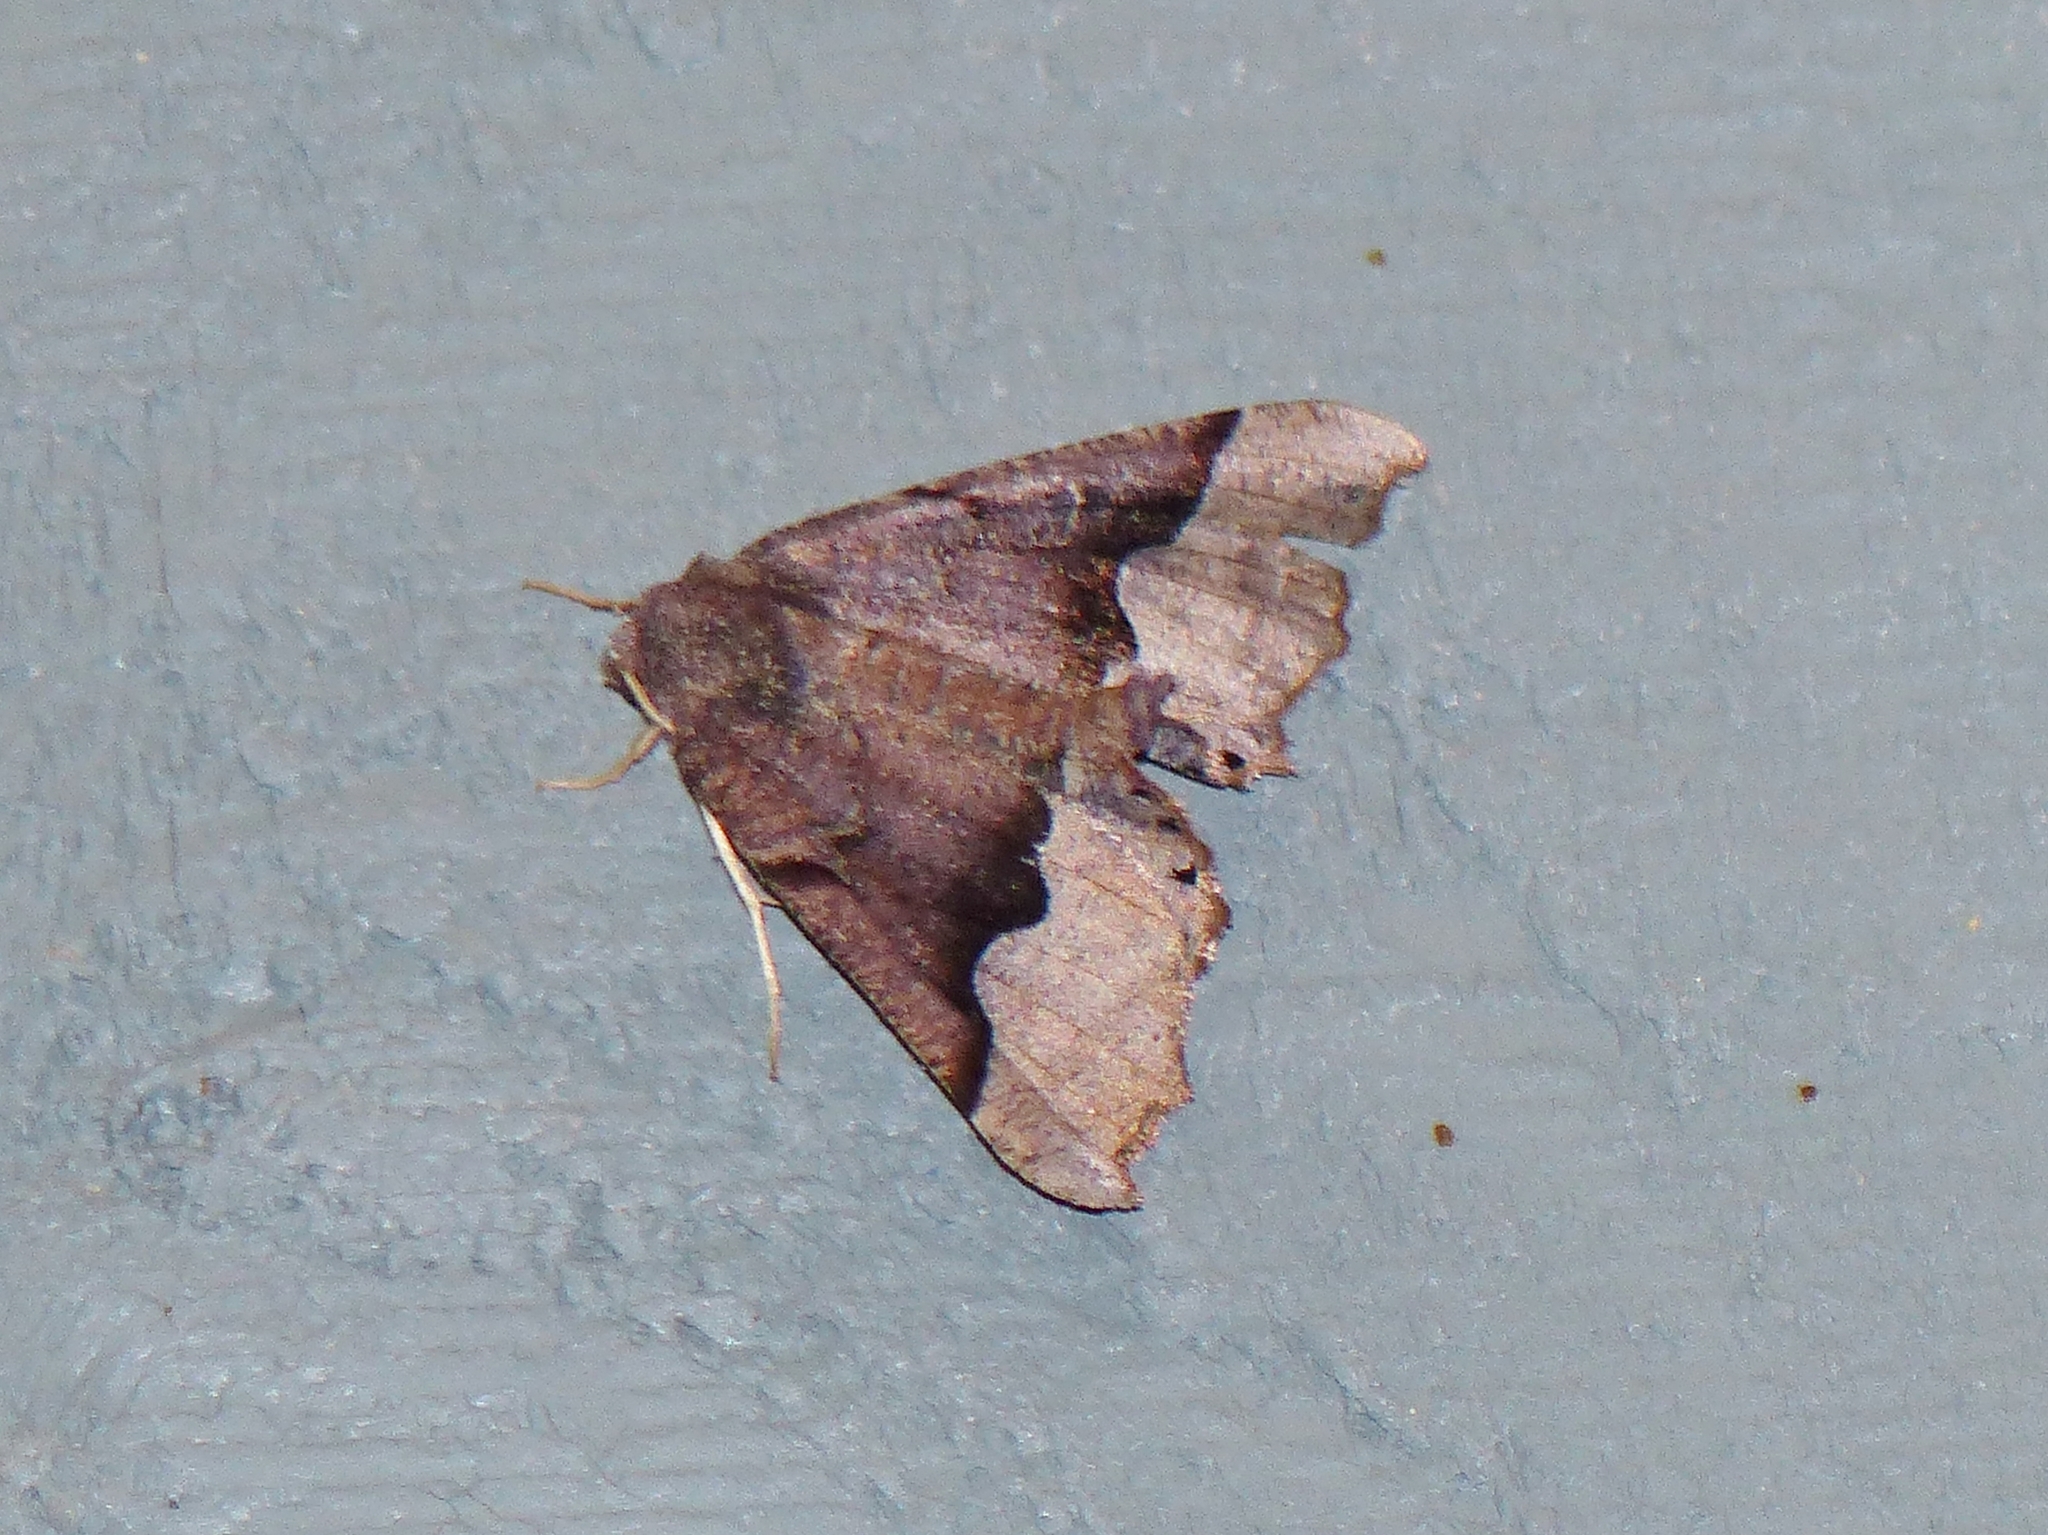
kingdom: Animalia
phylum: Arthropoda
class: Insecta
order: Lepidoptera
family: Geometridae
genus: Pero
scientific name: Pero honestaria
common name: Honest pero
